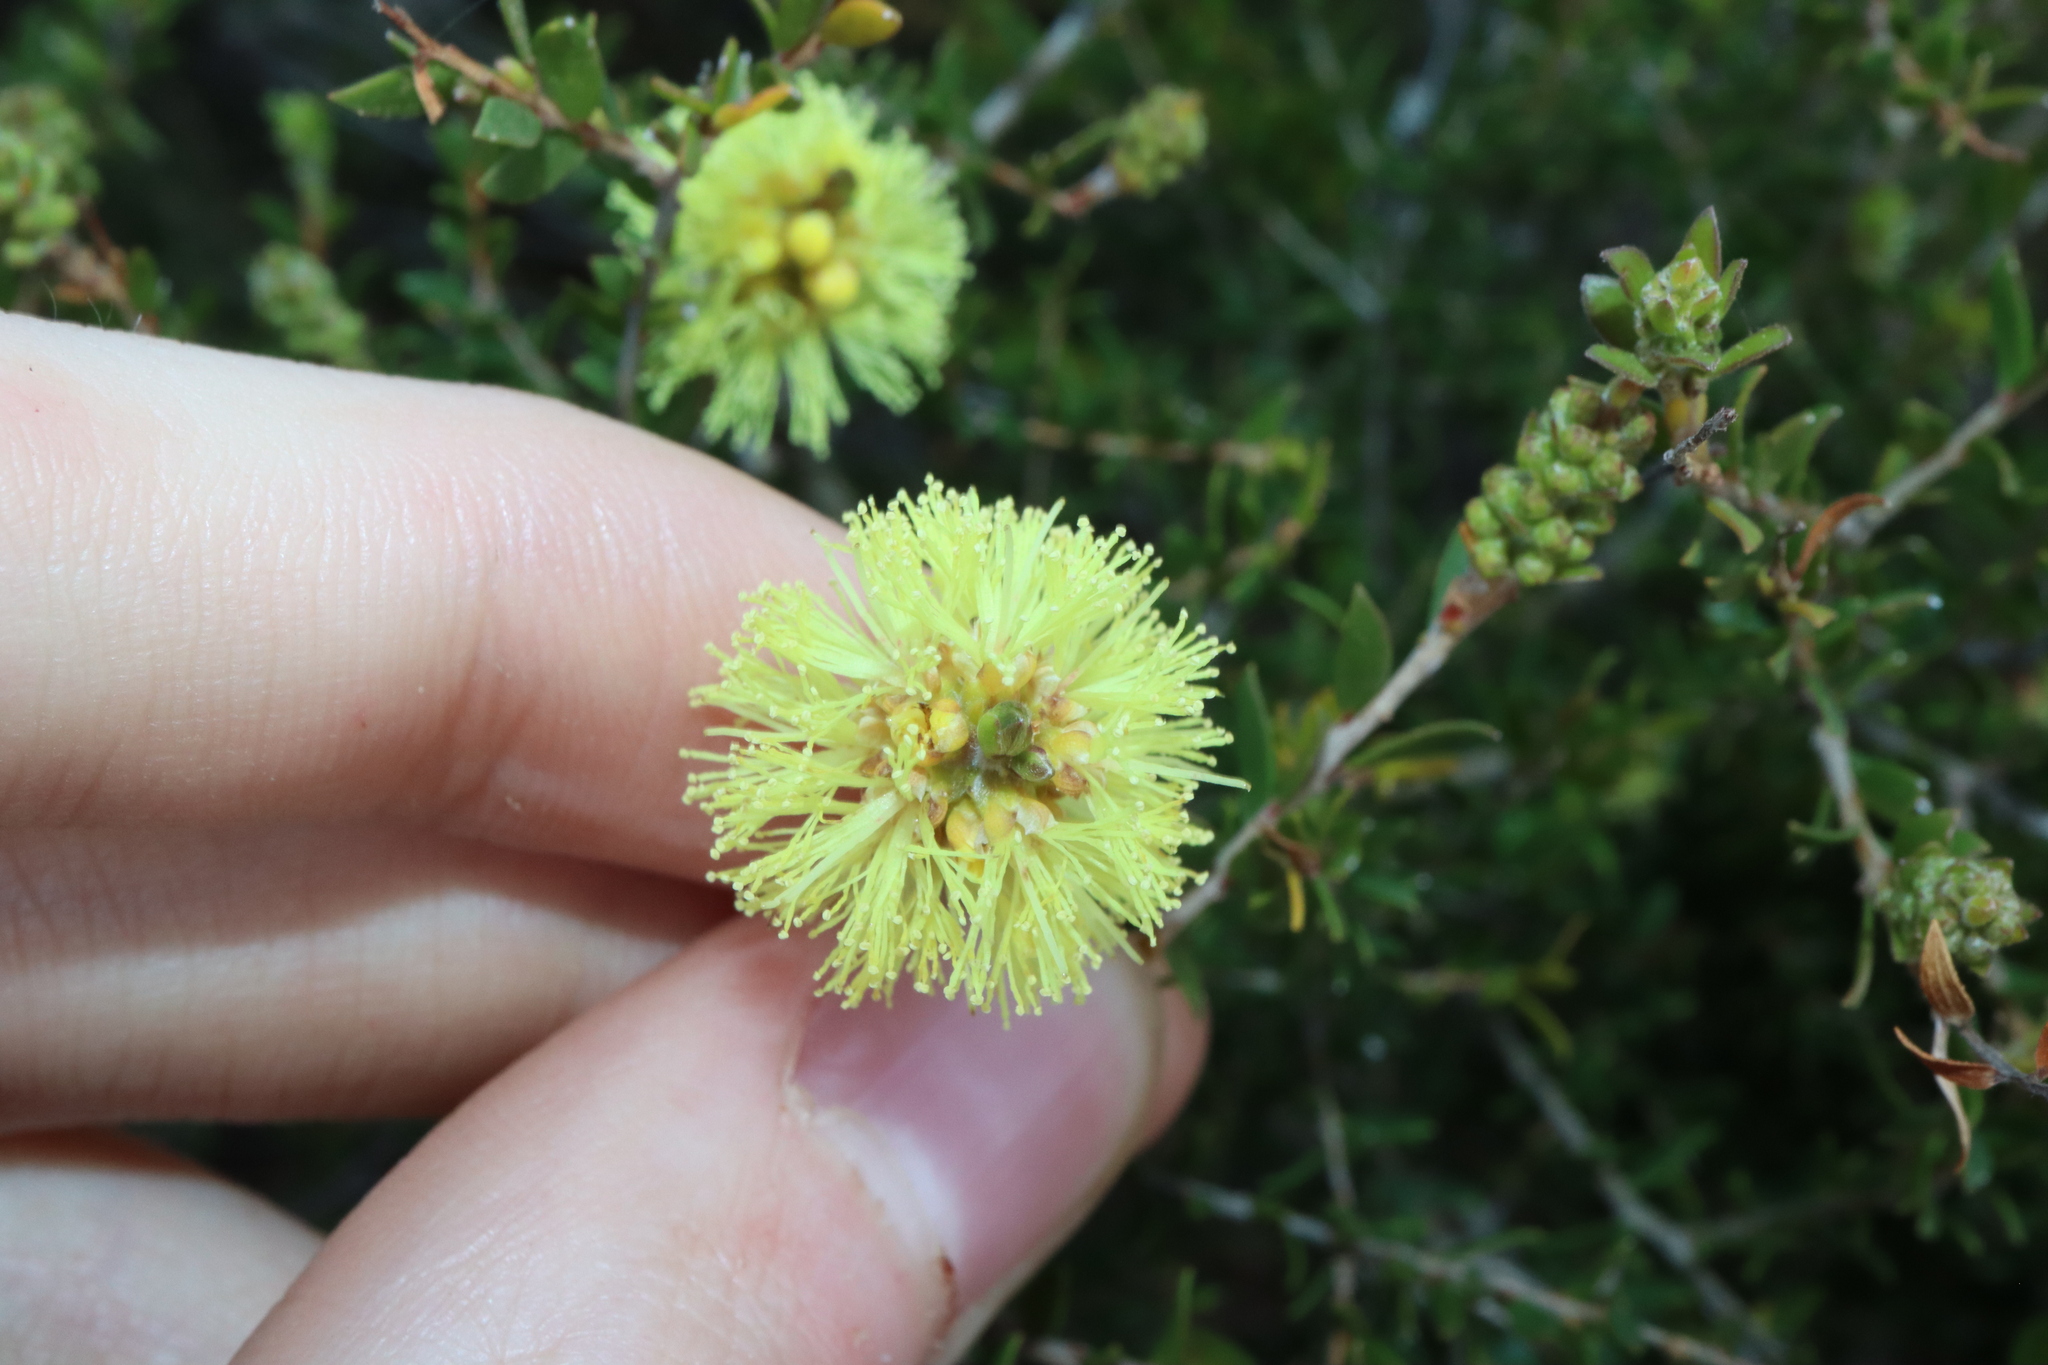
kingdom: Plantae
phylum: Tracheophyta
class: Magnoliopsida
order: Myrtales
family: Myrtaceae
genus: Melaleuca
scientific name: Melaleuca thymoides
